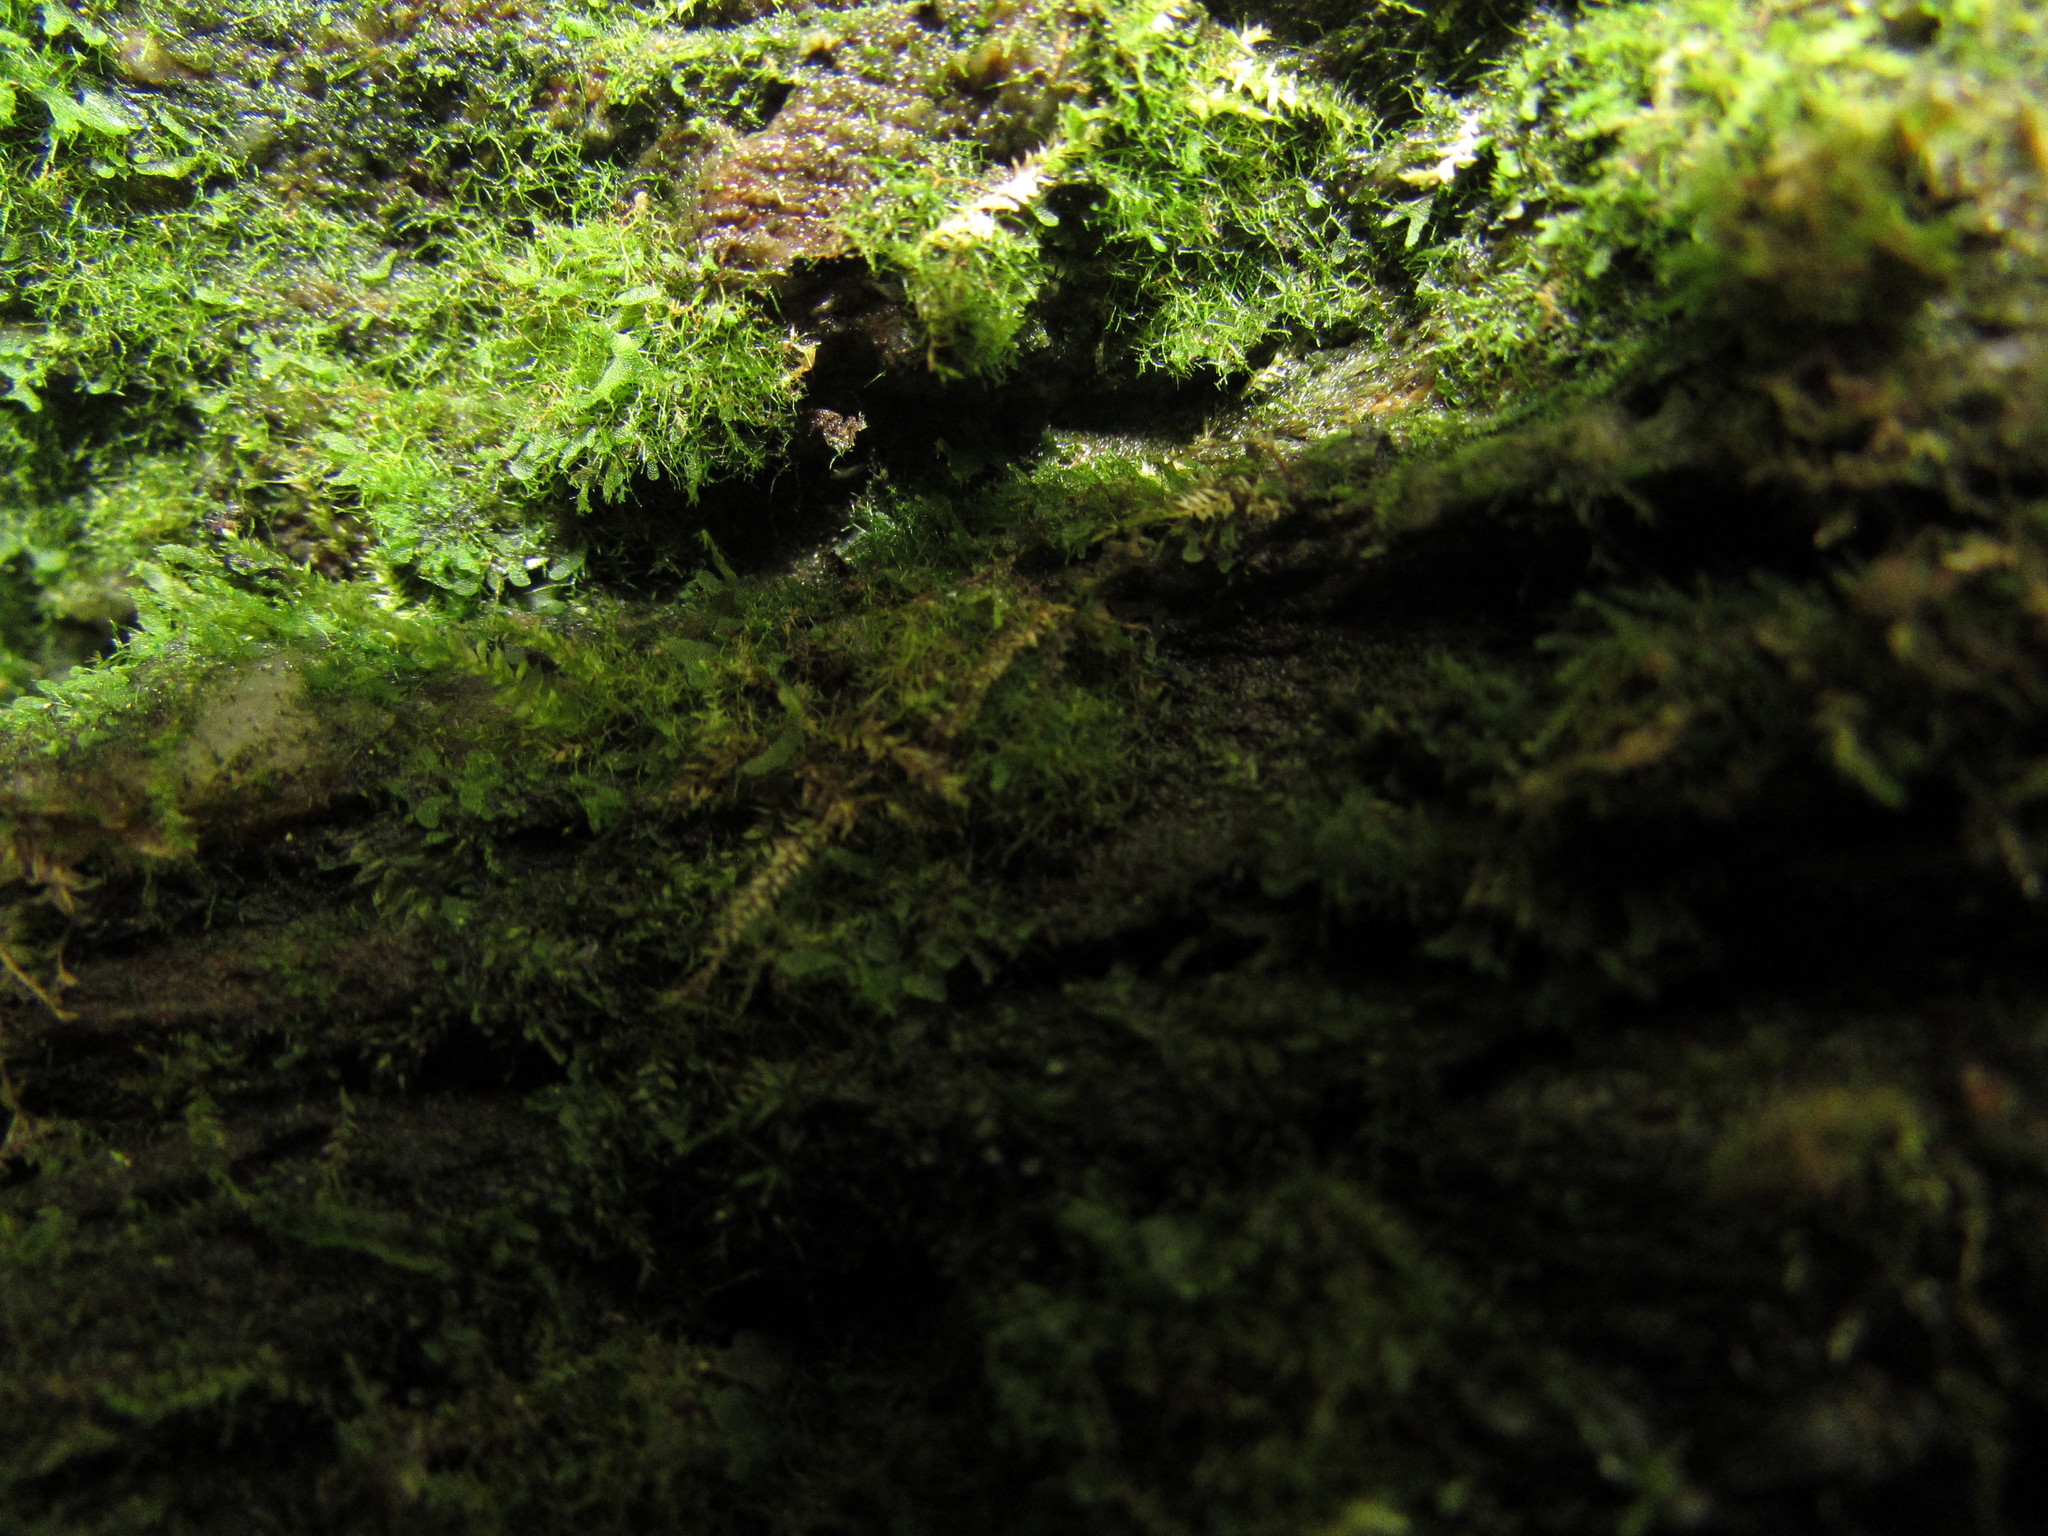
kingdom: Plantae
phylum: Tracheophyta
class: Polypodiopsida
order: Hymenophyllales
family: Hymenophyllaceae
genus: Crepidomanes
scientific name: Crepidomanes intricatum
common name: Weft fern
